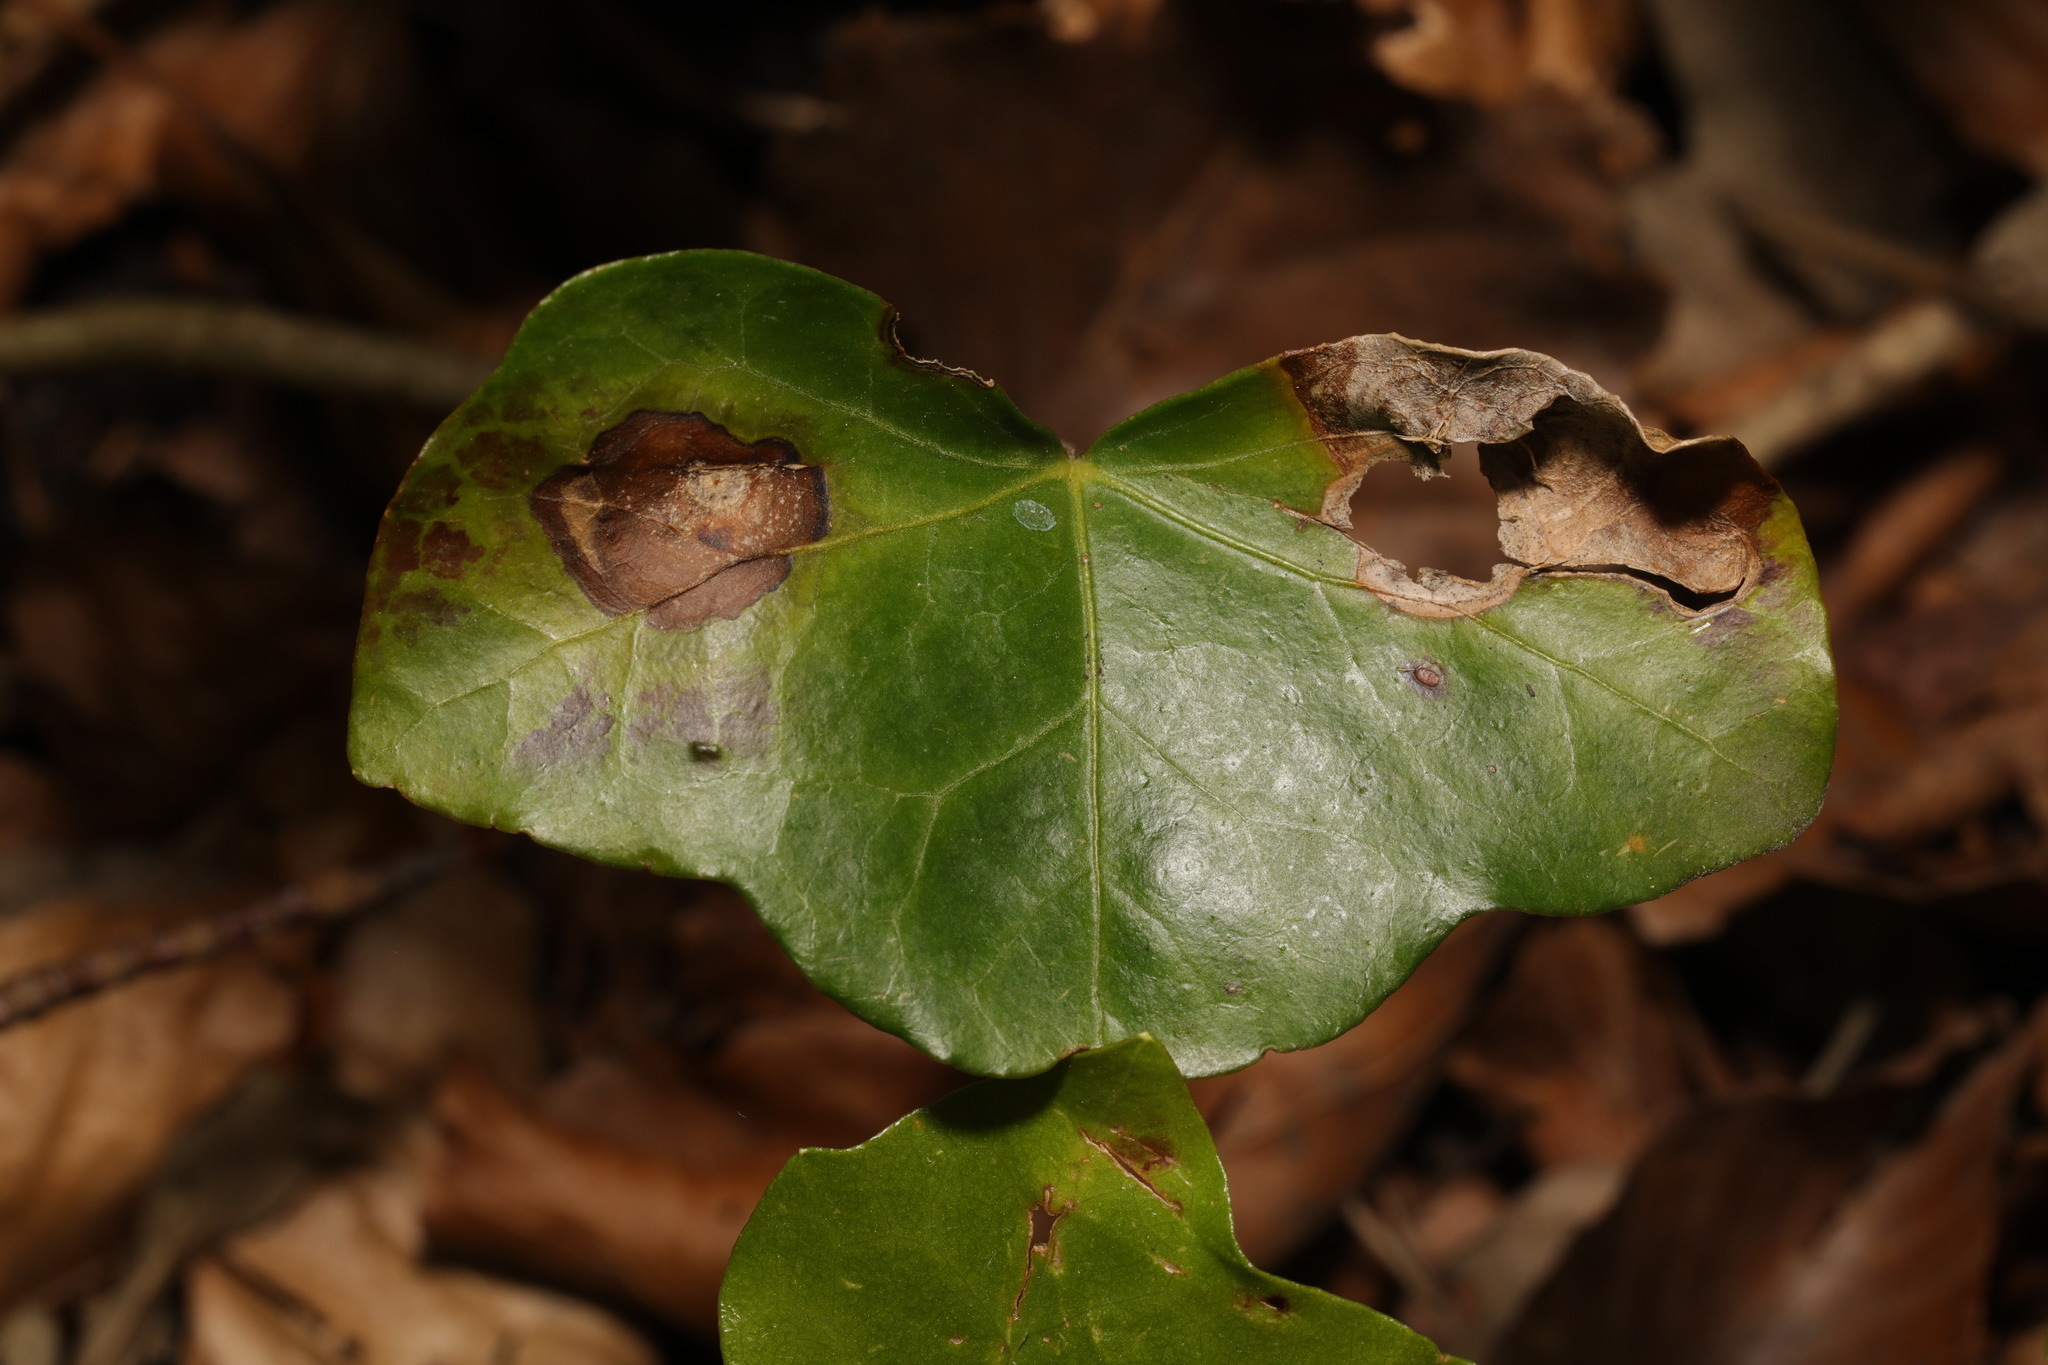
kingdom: Fungi
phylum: Ascomycota
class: Dothideomycetes
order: Pleosporales
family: Didymellaceae
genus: Boeremia
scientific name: Boeremia hedericola
